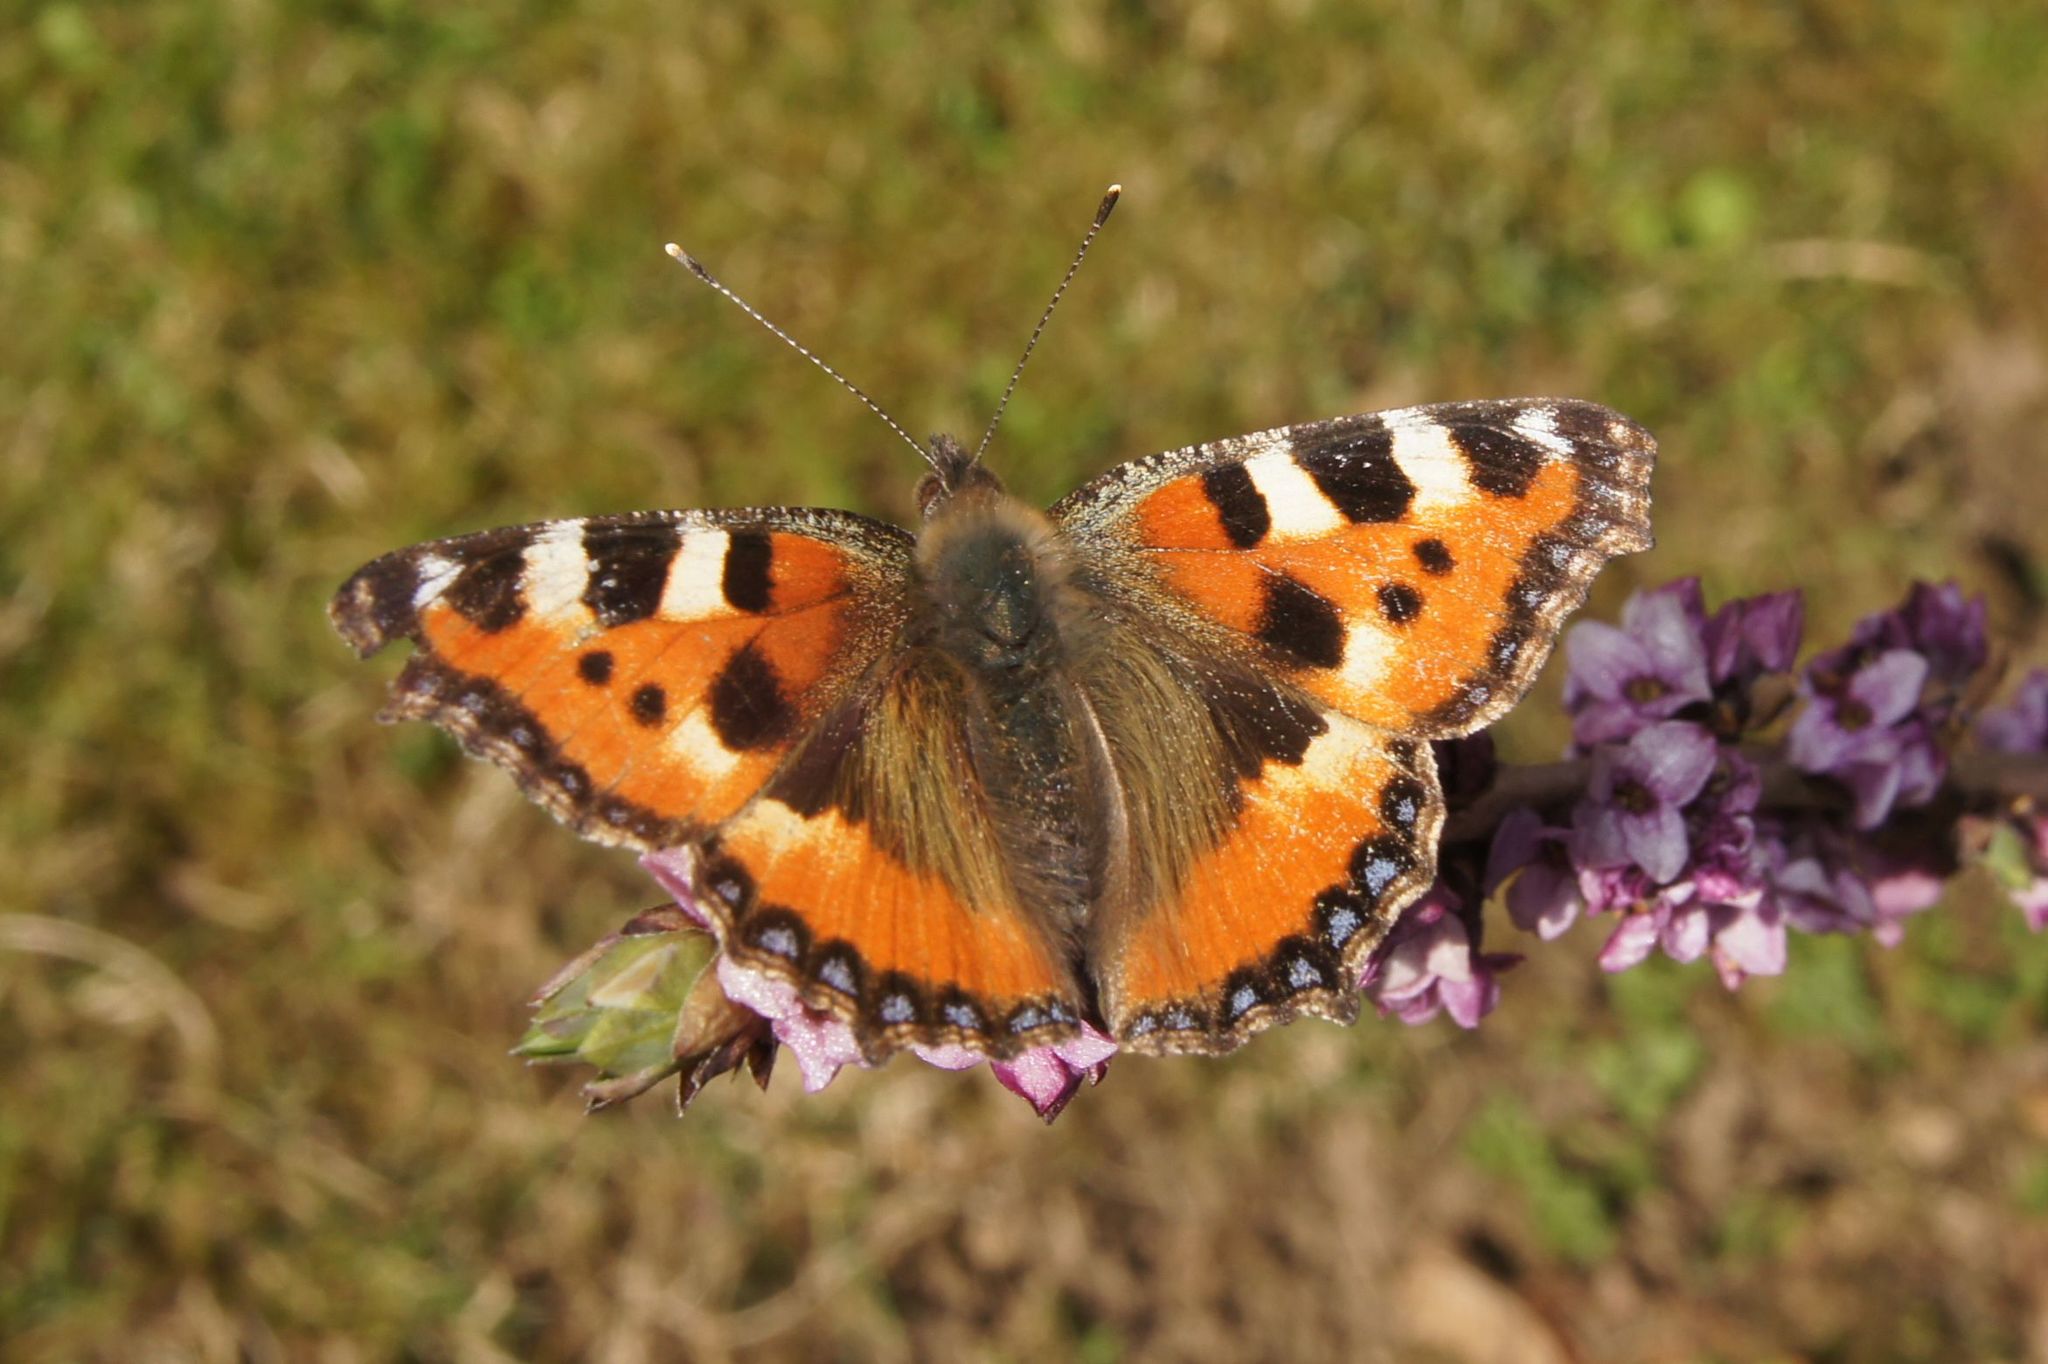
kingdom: Animalia
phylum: Arthropoda
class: Insecta
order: Lepidoptera
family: Nymphalidae
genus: Aglais
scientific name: Aglais urticae
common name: Small tortoiseshell
